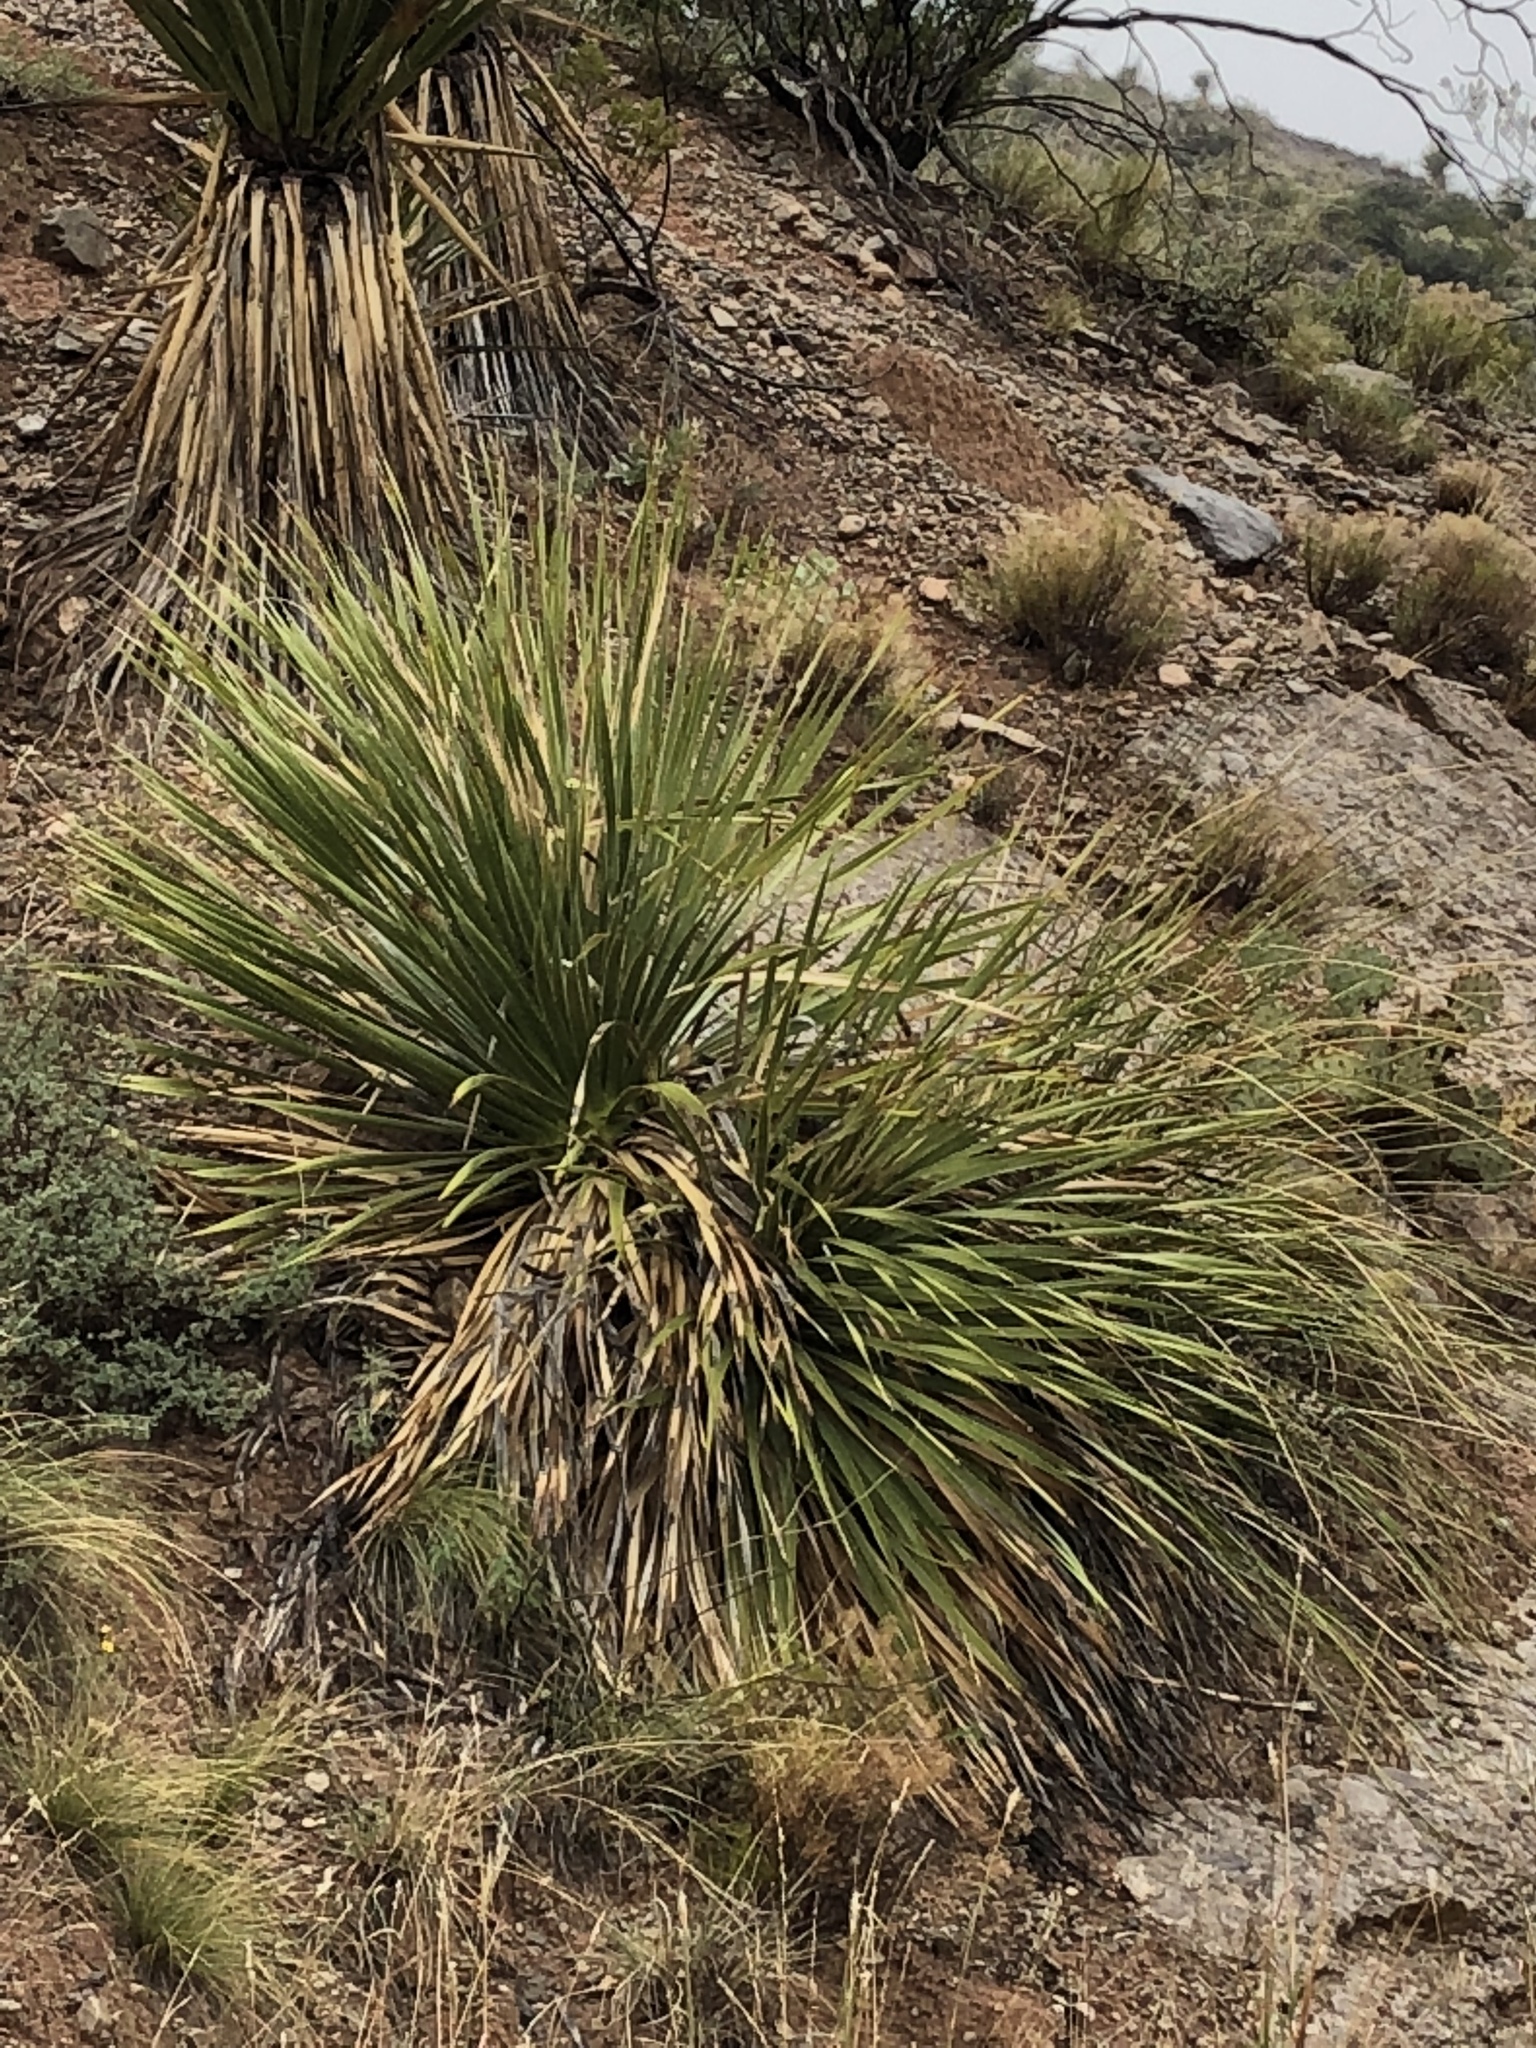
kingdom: Plantae
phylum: Tracheophyta
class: Liliopsida
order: Asparagales
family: Asparagaceae
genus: Dasylirion
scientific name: Dasylirion wheeleri
